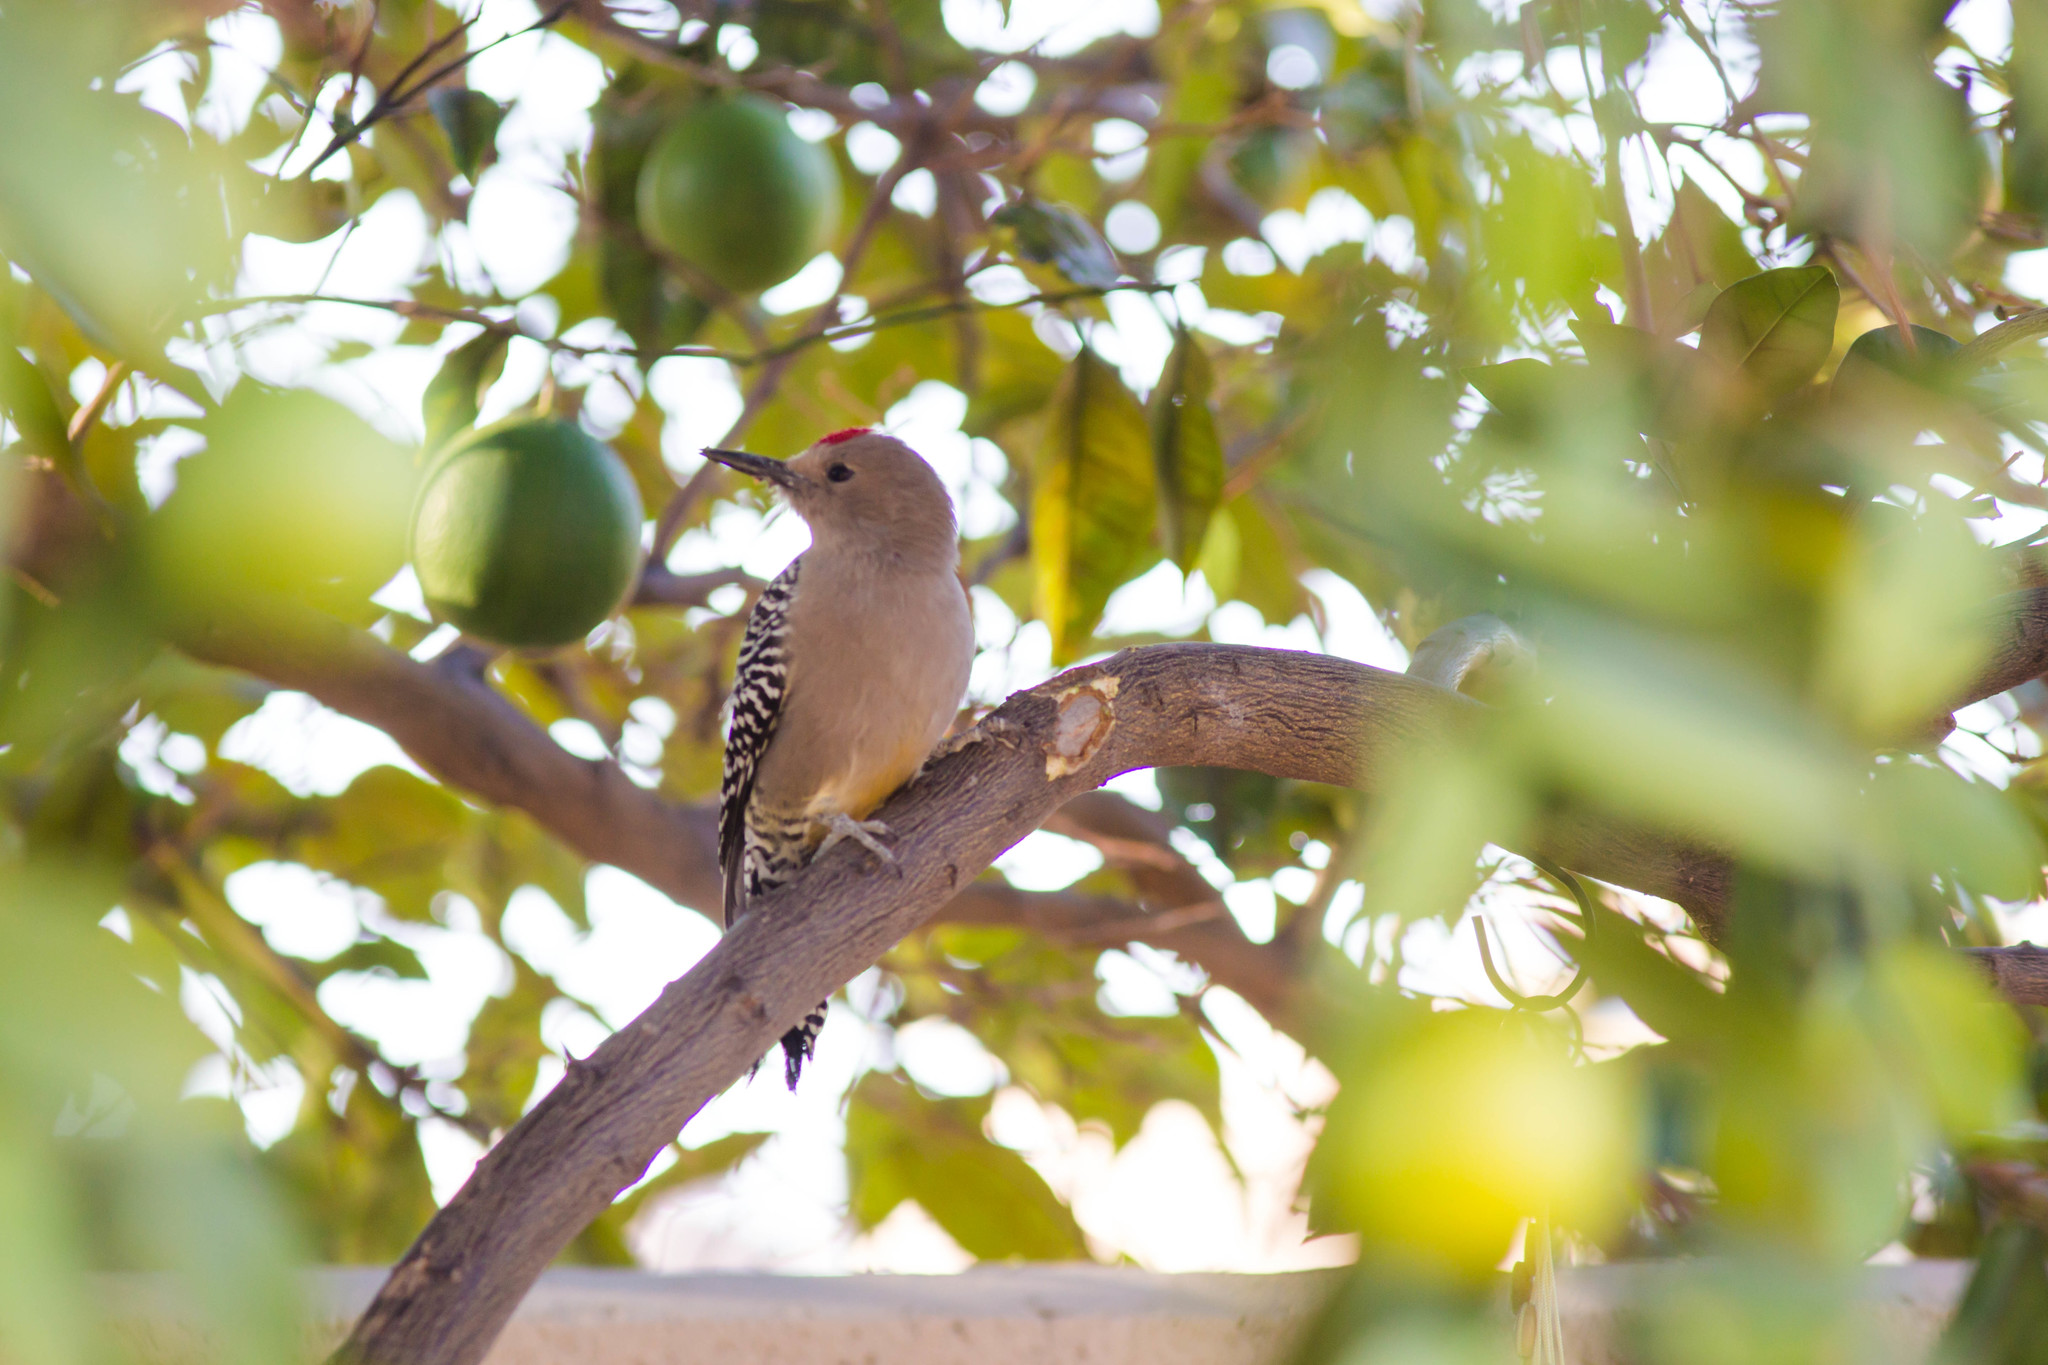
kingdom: Animalia
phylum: Chordata
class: Aves
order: Piciformes
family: Picidae
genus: Melanerpes
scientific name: Melanerpes uropygialis
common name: Gila woodpecker
